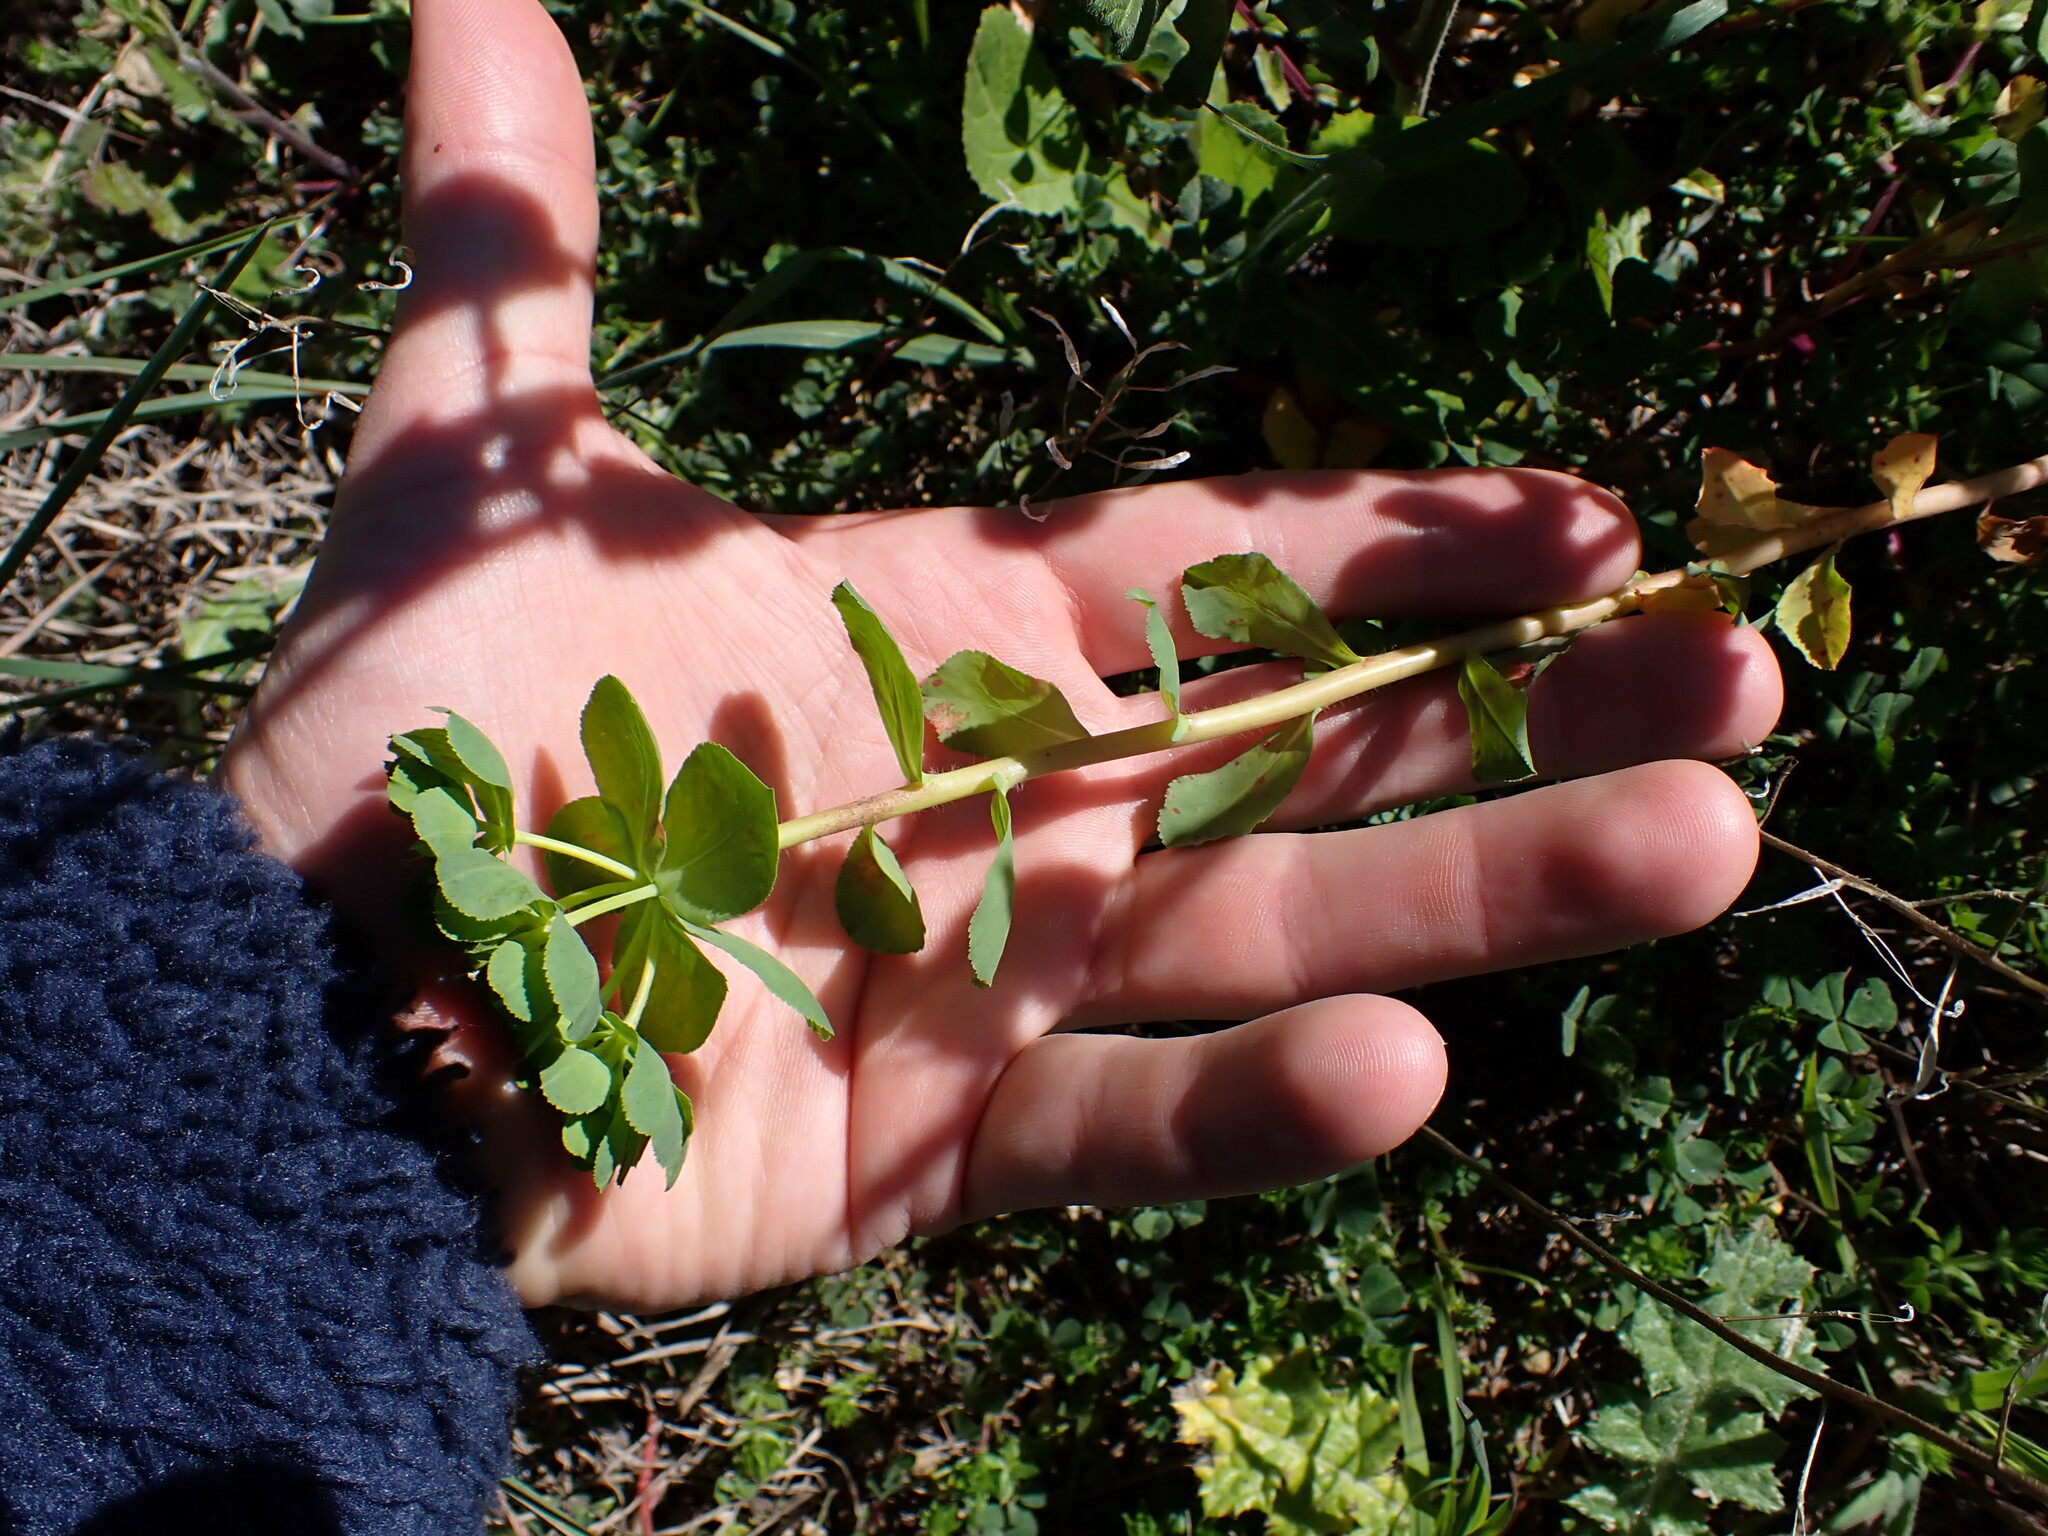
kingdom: Plantae
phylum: Tracheophyta
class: Magnoliopsida
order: Malpighiales
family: Euphorbiaceae
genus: Euphorbia
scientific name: Euphorbia helioscopia
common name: Sun spurge
